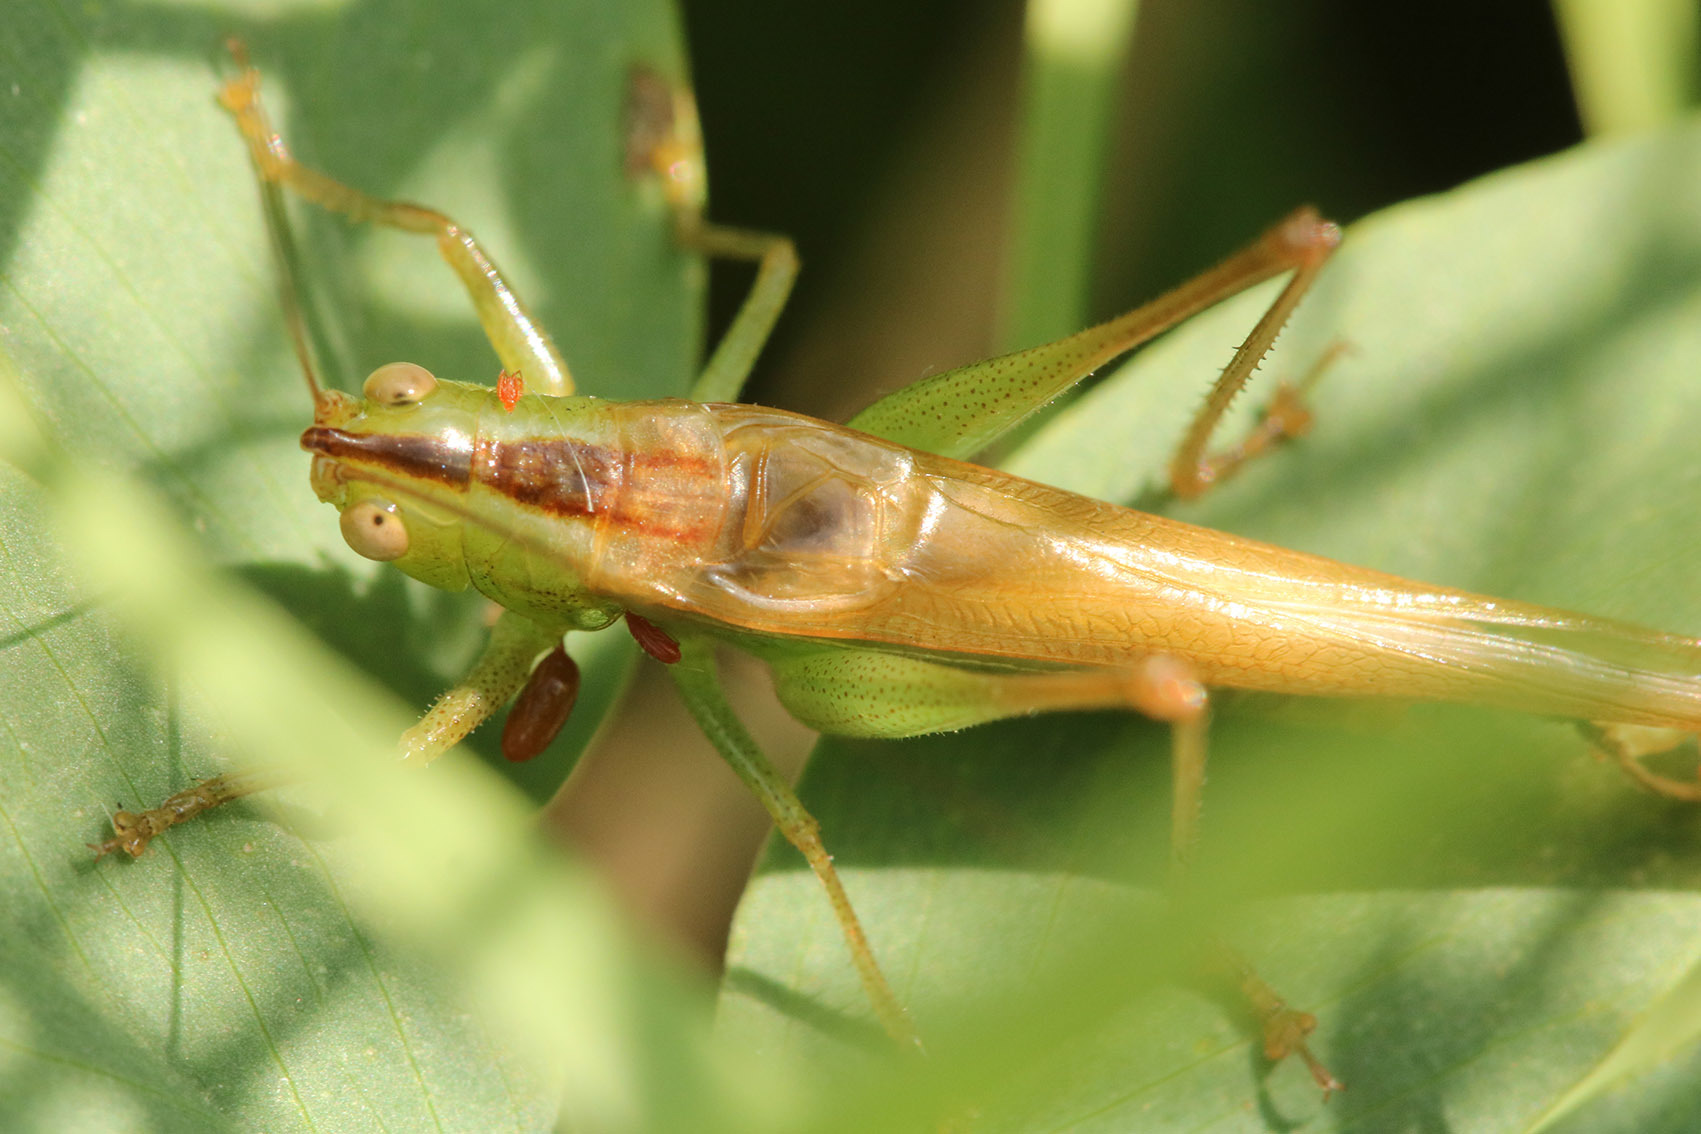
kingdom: Animalia
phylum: Arthropoda
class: Insecta
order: Orthoptera
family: Tettigoniidae
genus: Conocephalus
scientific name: Conocephalus longipes
